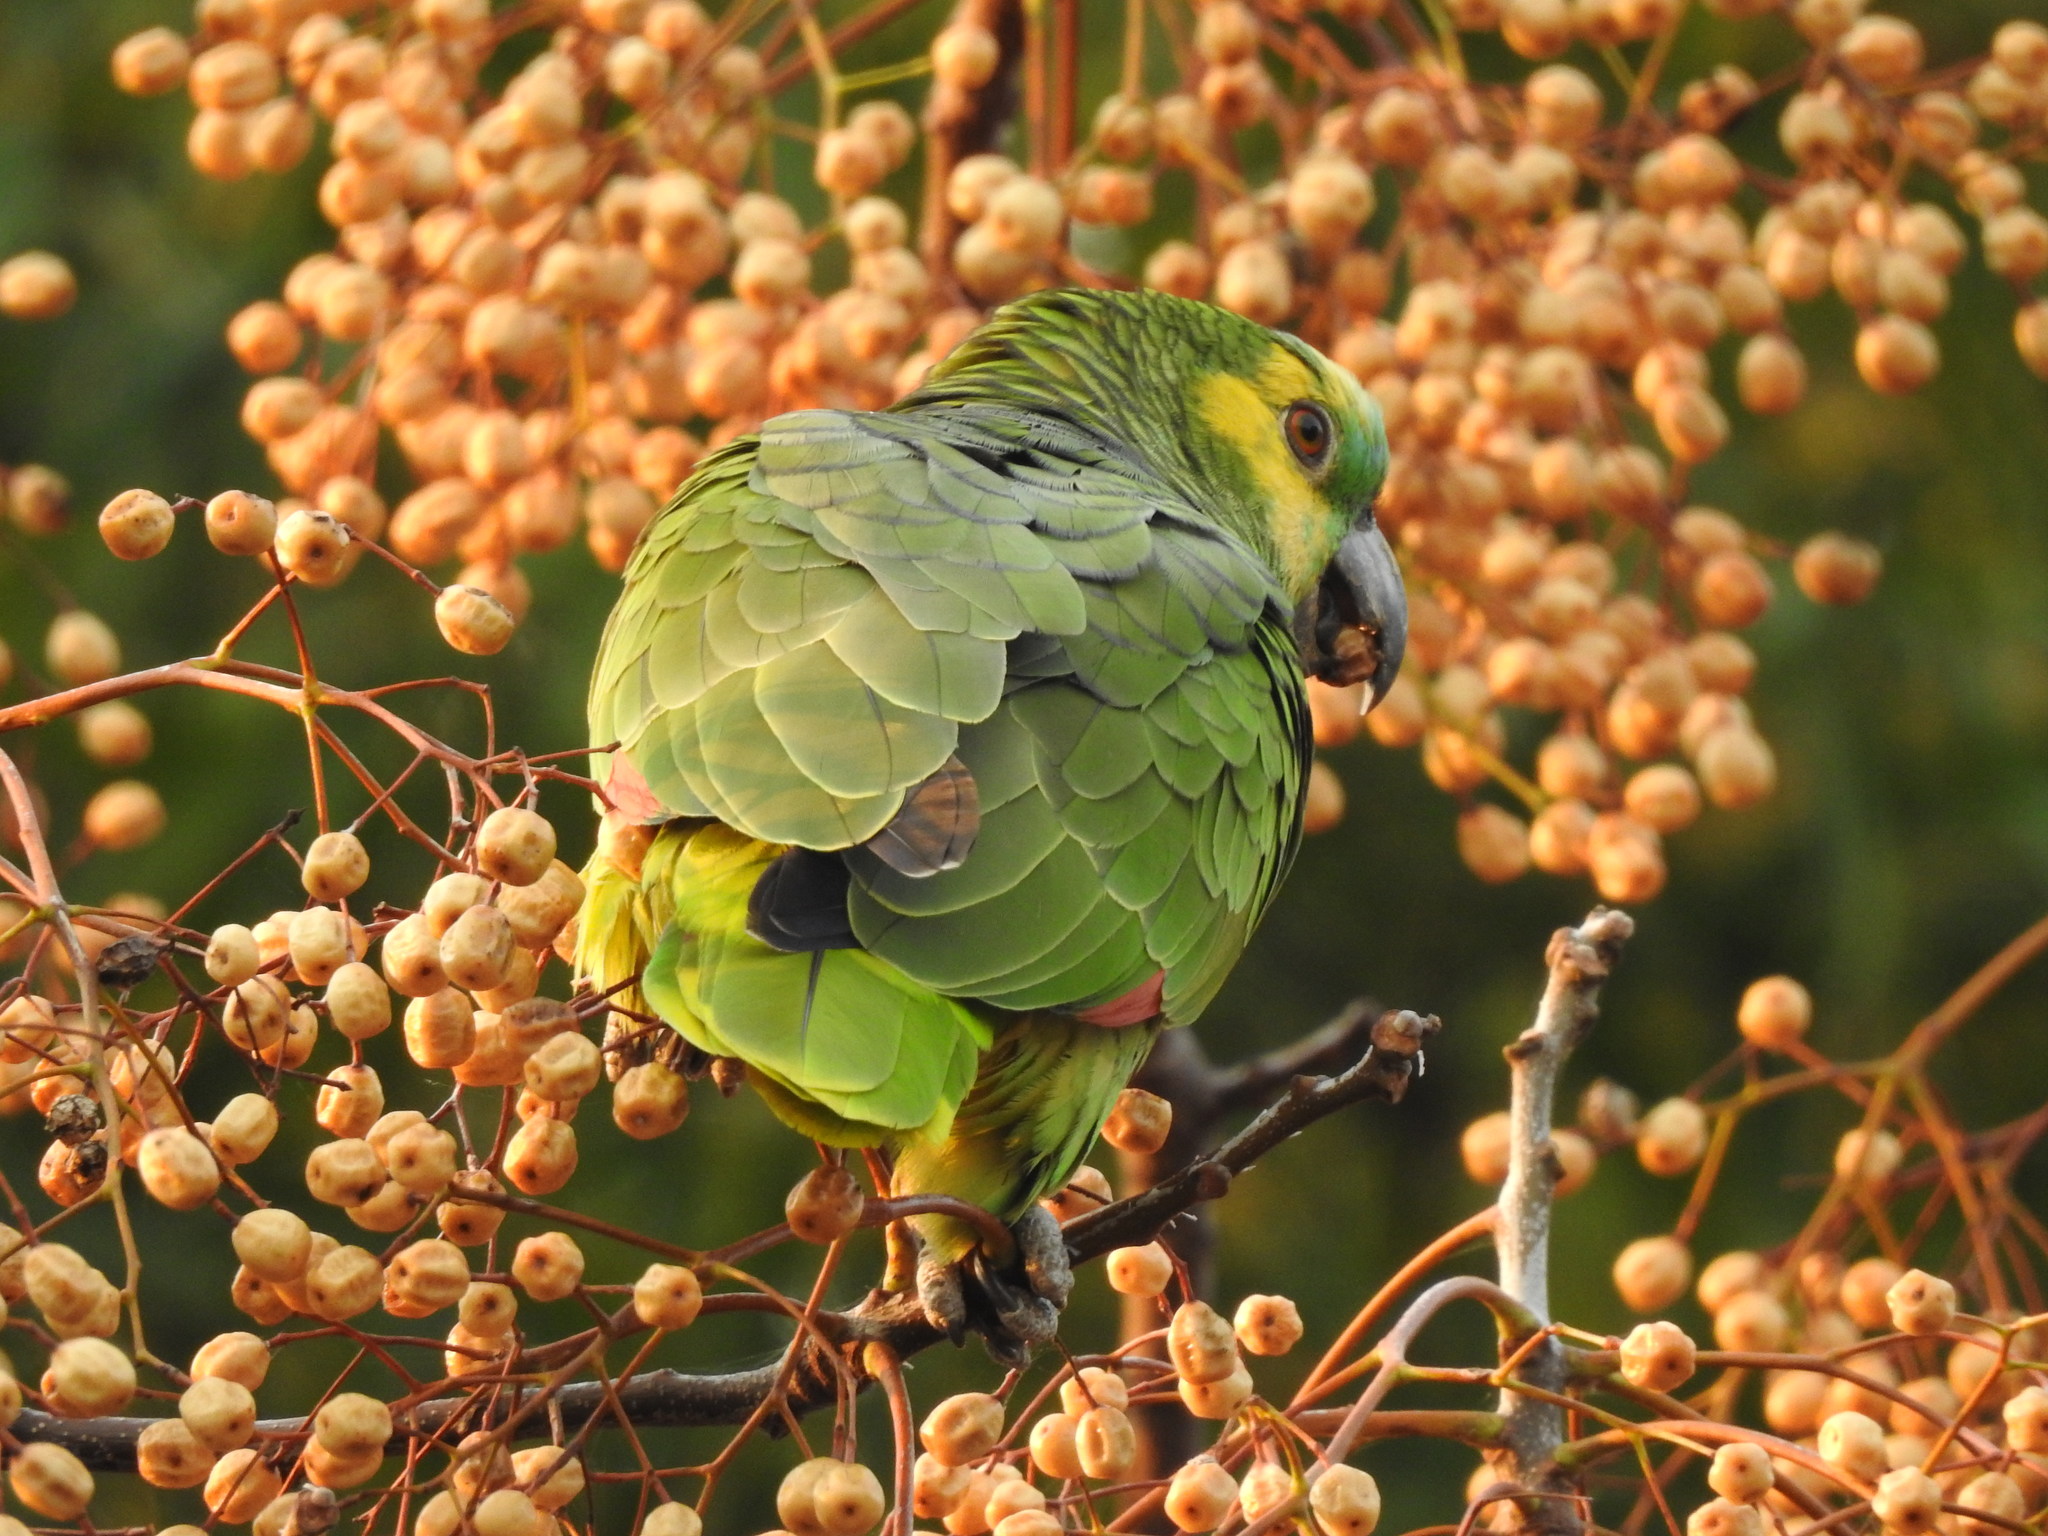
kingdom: Animalia
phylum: Chordata
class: Aves
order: Psittaciformes
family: Psittacidae
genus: Amazona
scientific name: Amazona aestiva
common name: Turquoise-fronted amazon
